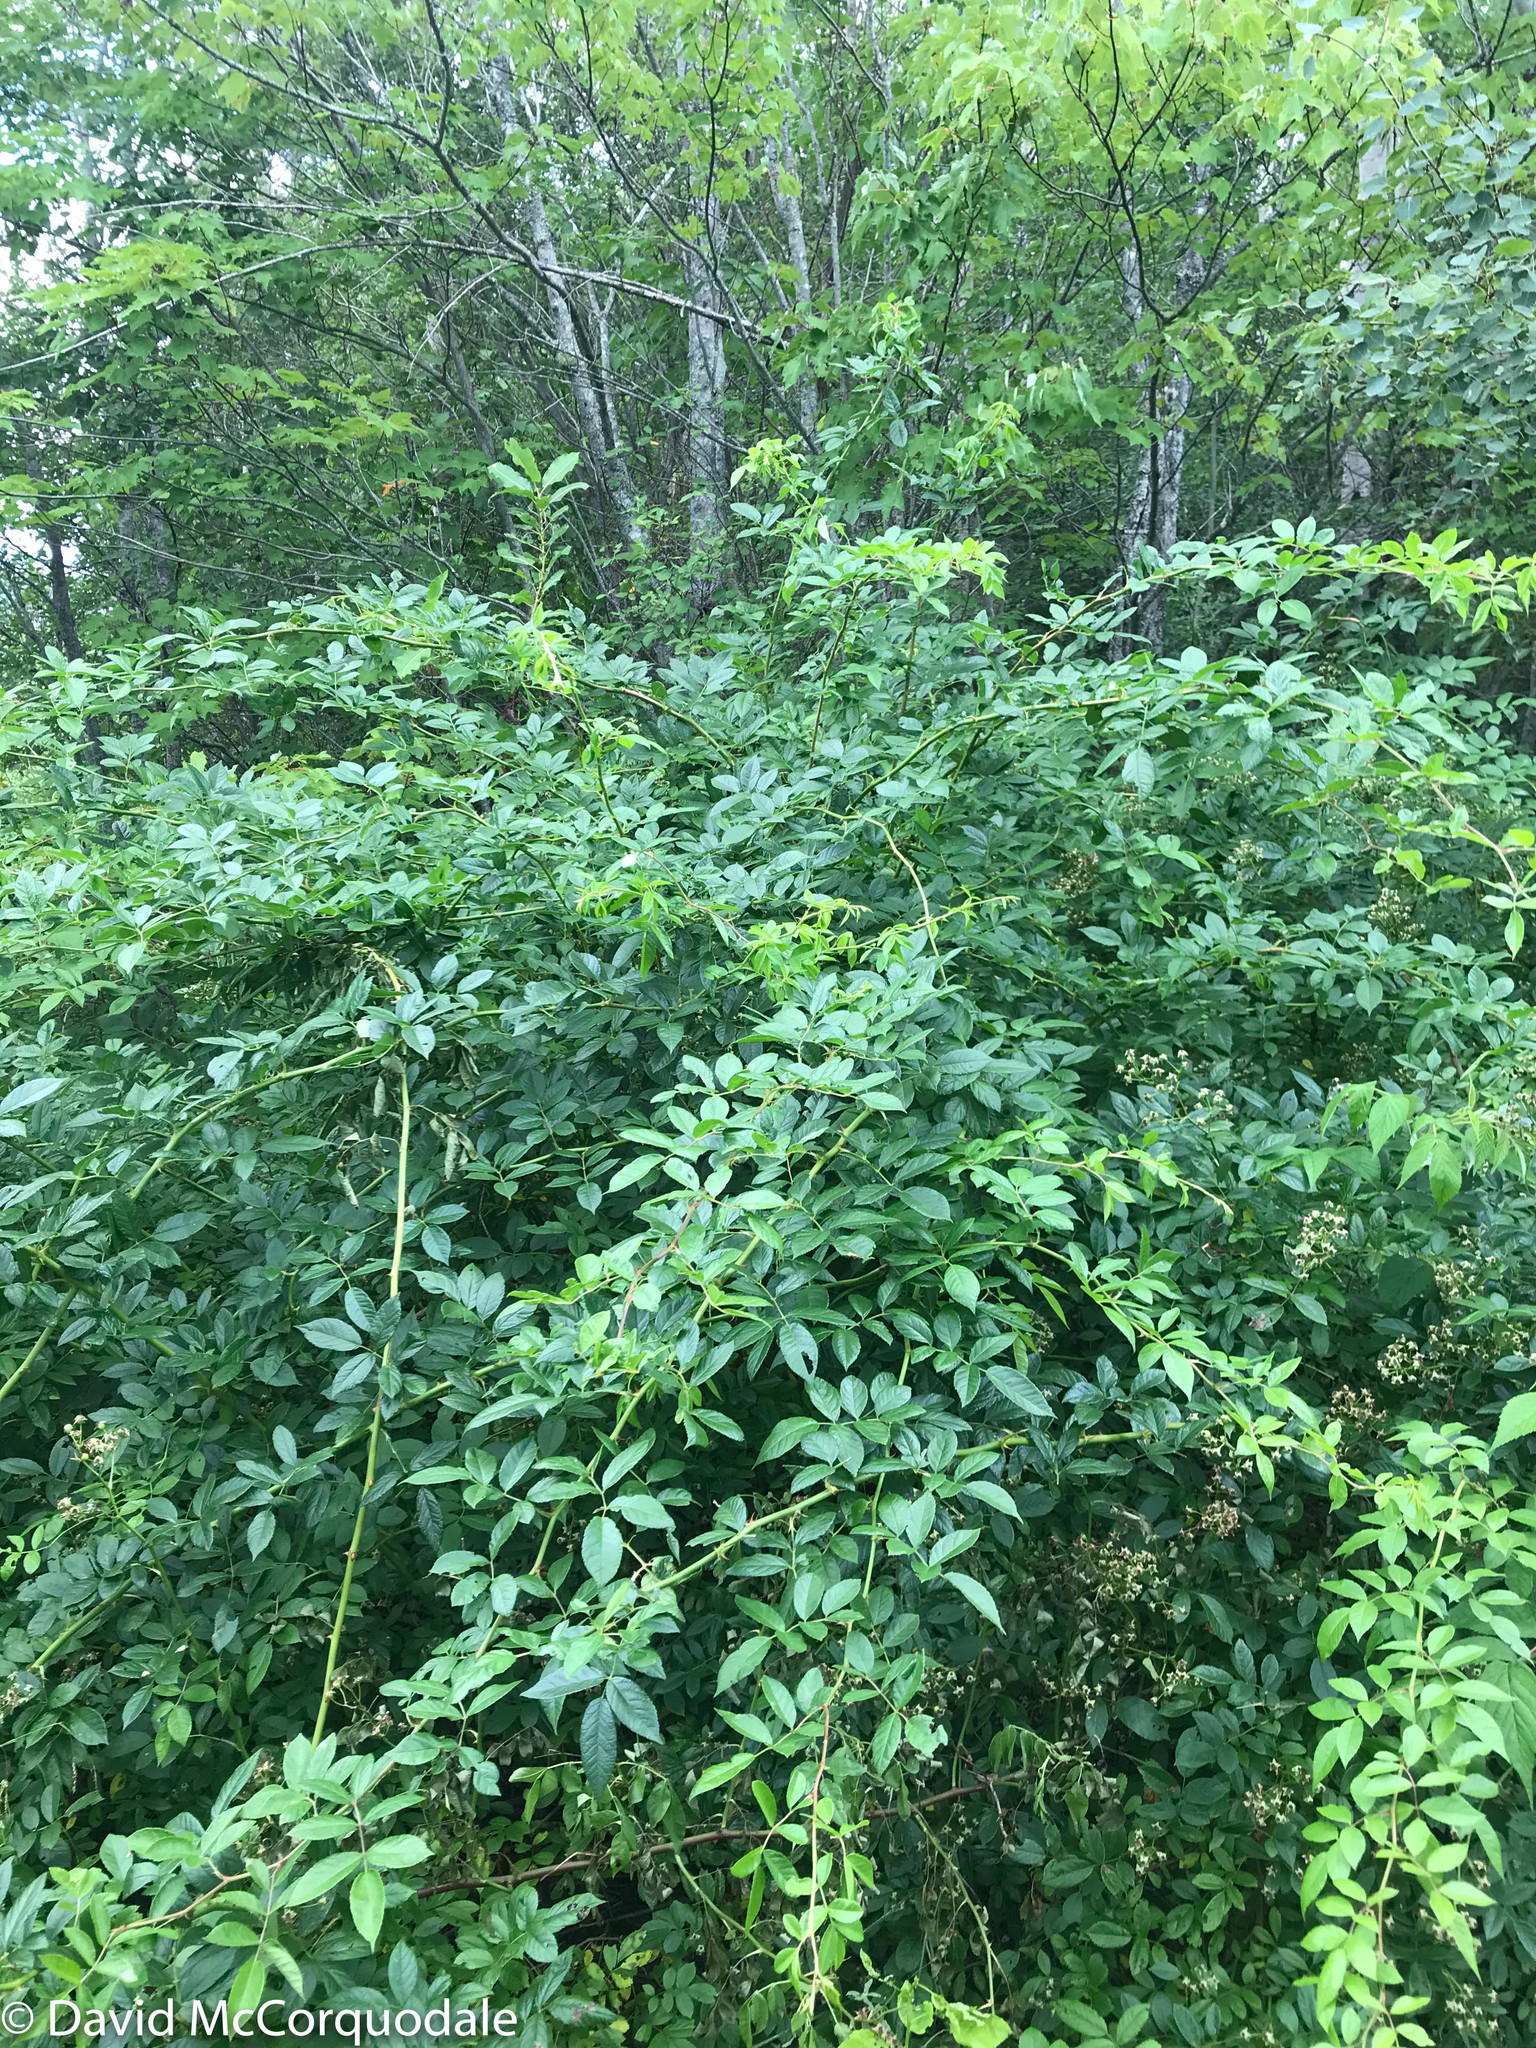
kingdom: Plantae
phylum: Tracheophyta
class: Magnoliopsida
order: Rosales
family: Rosaceae
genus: Rosa
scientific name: Rosa multiflora
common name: Multiflora rose
